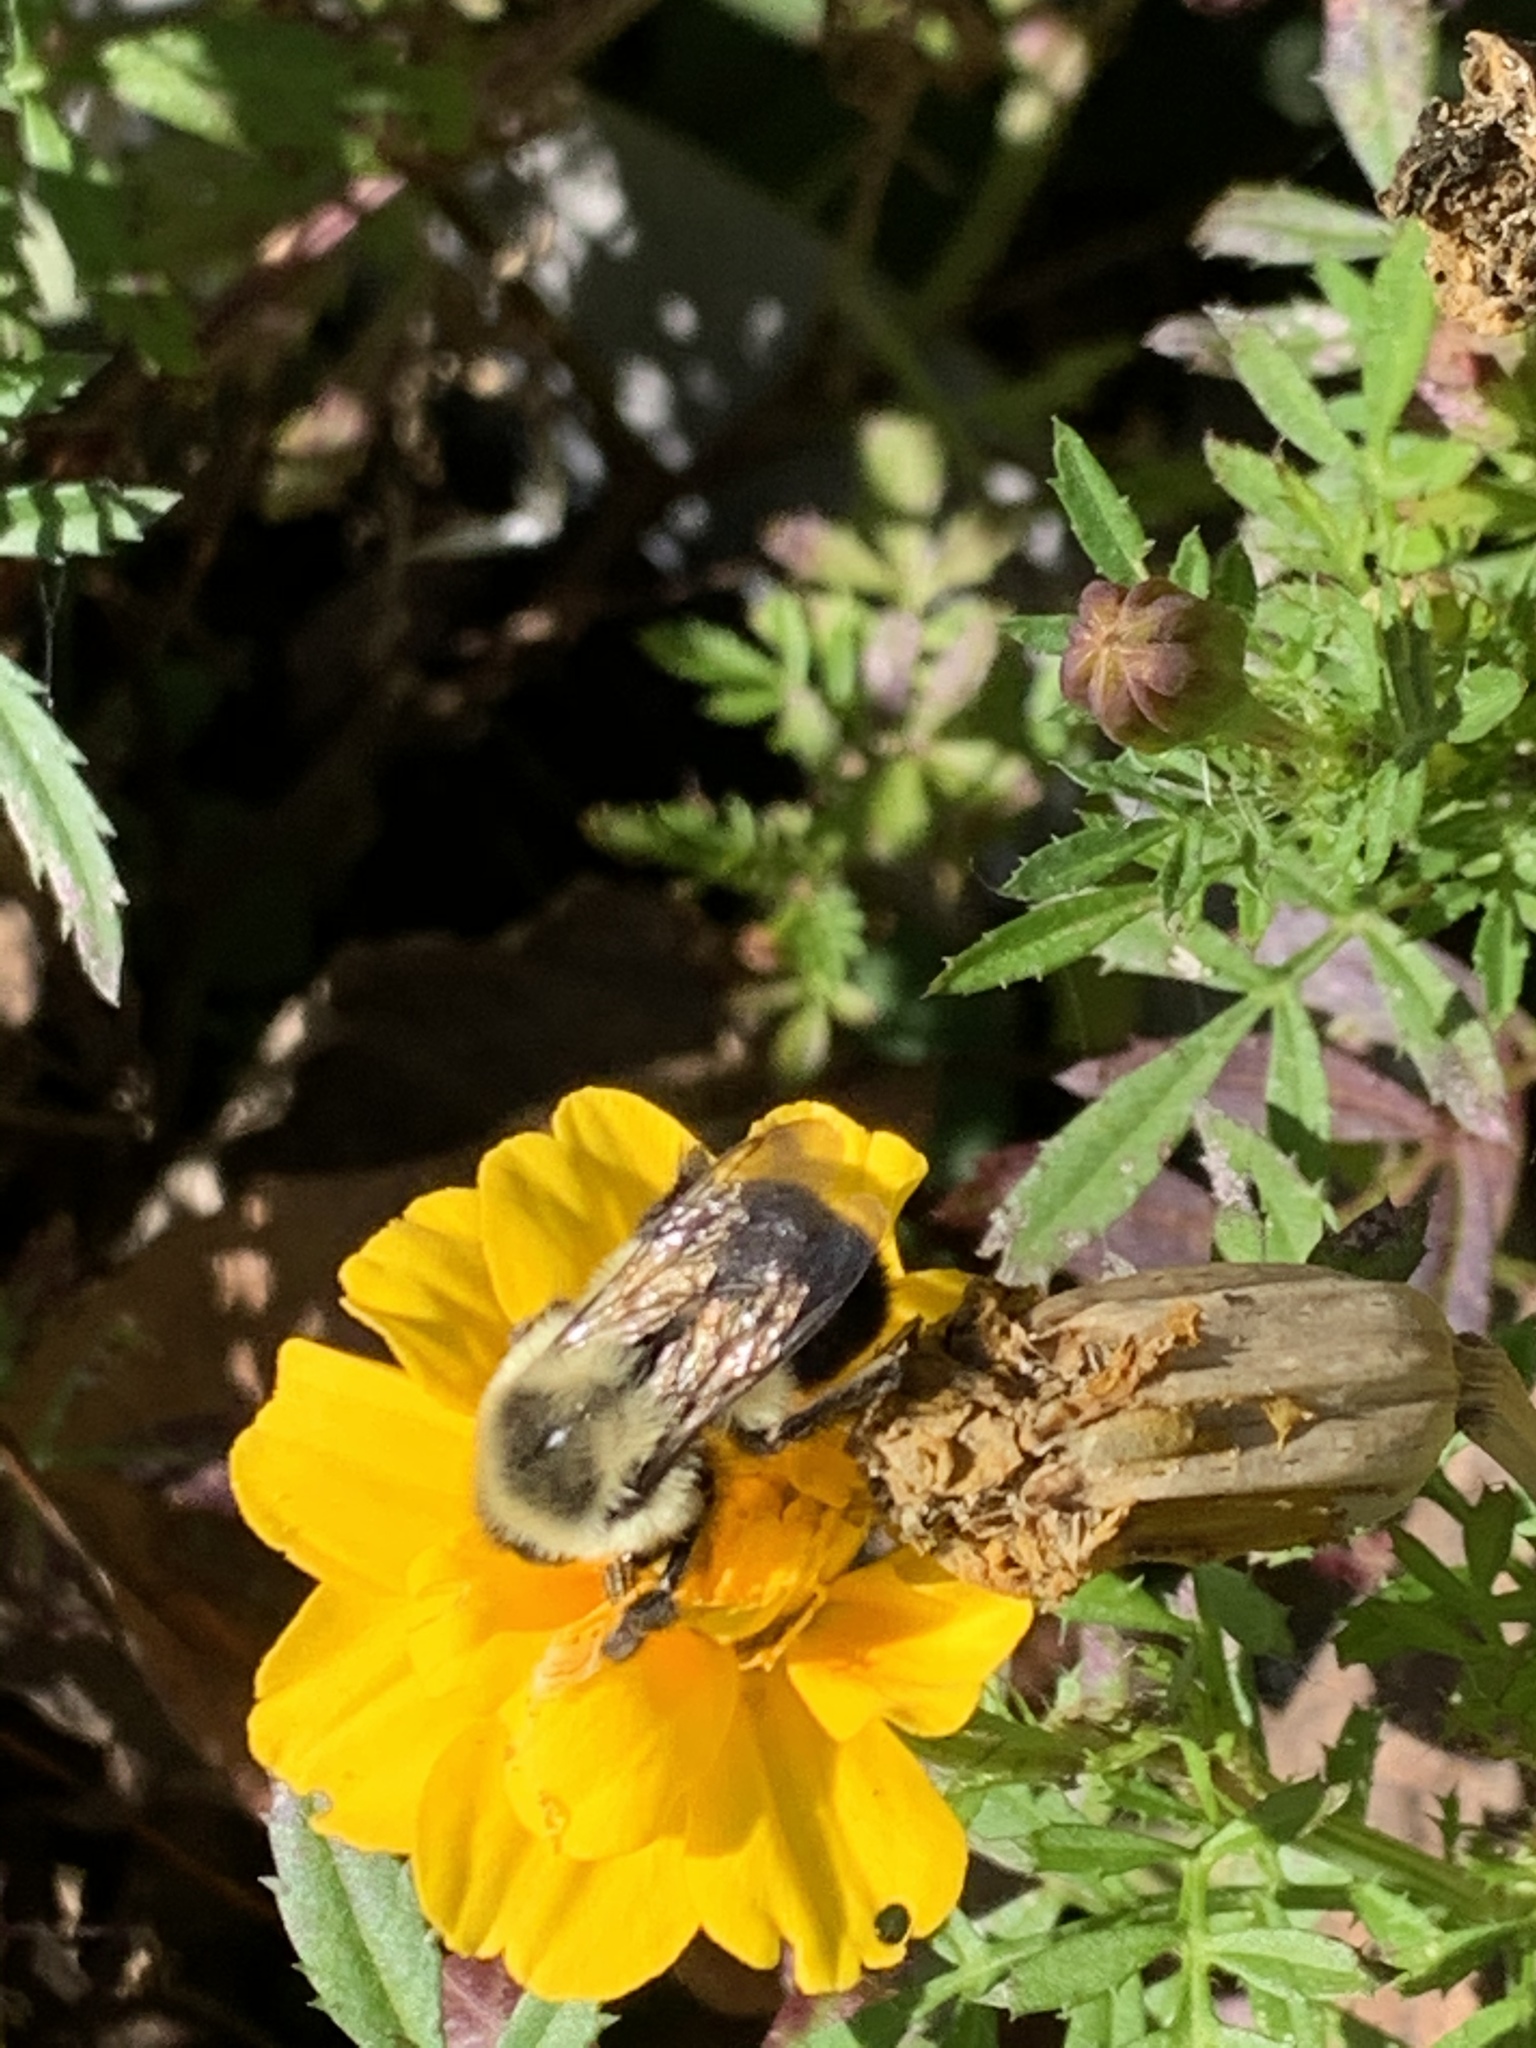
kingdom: Animalia
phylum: Arthropoda
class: Insecta
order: Hymenoptera
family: Apidae
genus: Bombus
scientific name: Bombus impatiens
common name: Common eastern bumble bee
